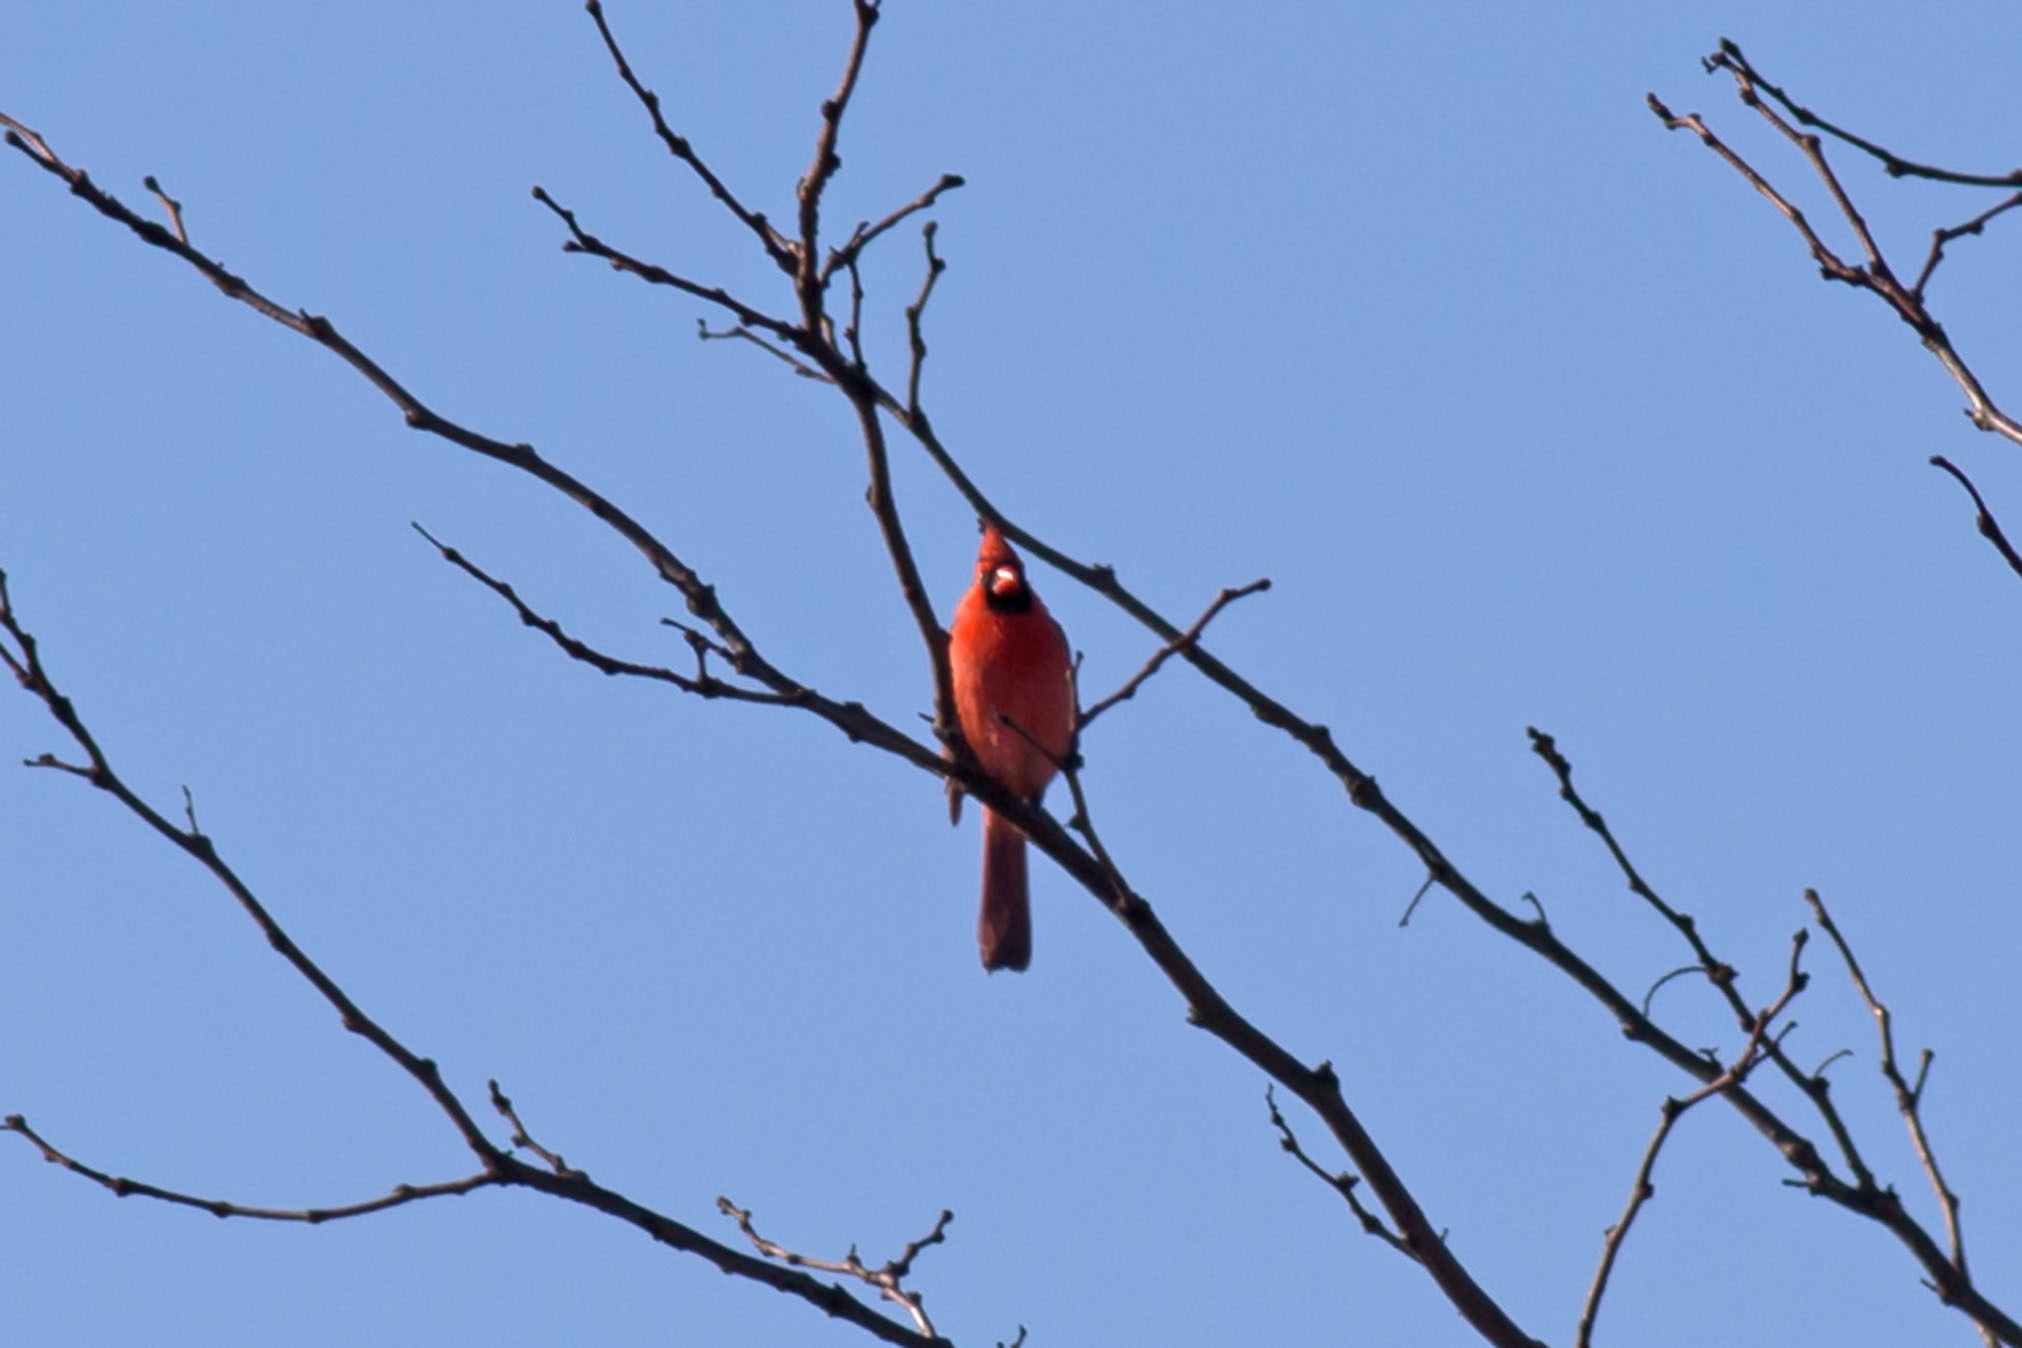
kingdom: Animalia
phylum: Chordata
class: Aves
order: Passeriformes
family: Cardinalidae
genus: Cardinalis
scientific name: Cardinalis cardinalis
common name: Northern cardinal
